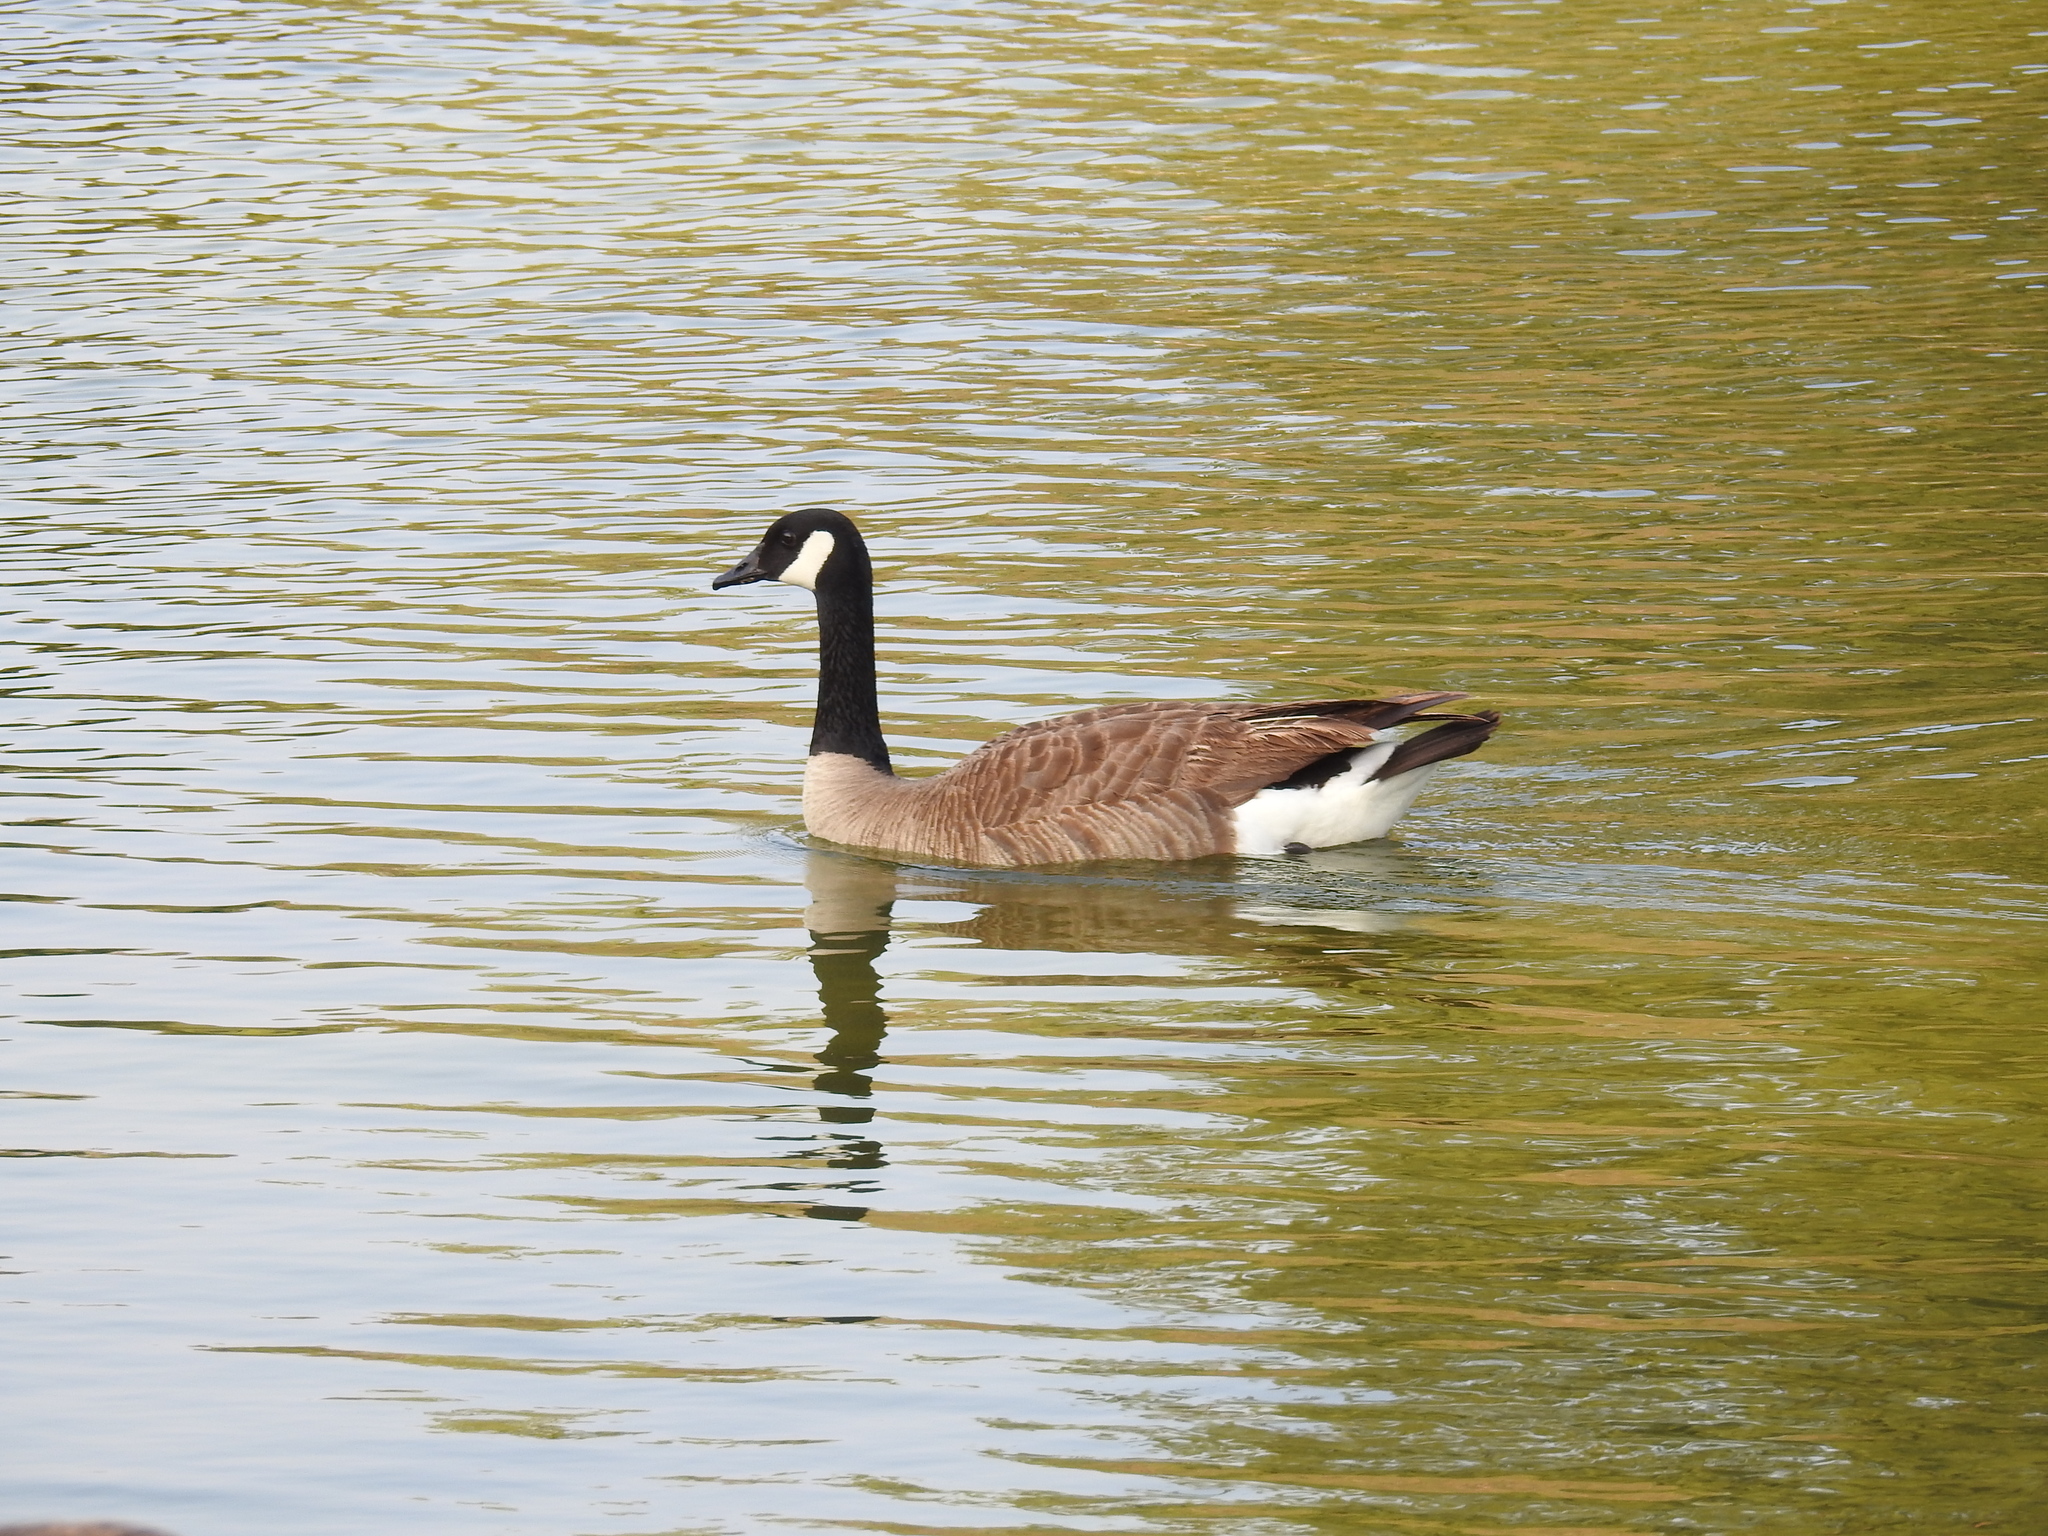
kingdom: Animalia
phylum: Chordata
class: Aves
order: Anseriformes
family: Anatidae
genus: Branta
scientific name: Branta canadensis
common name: Canada goose
